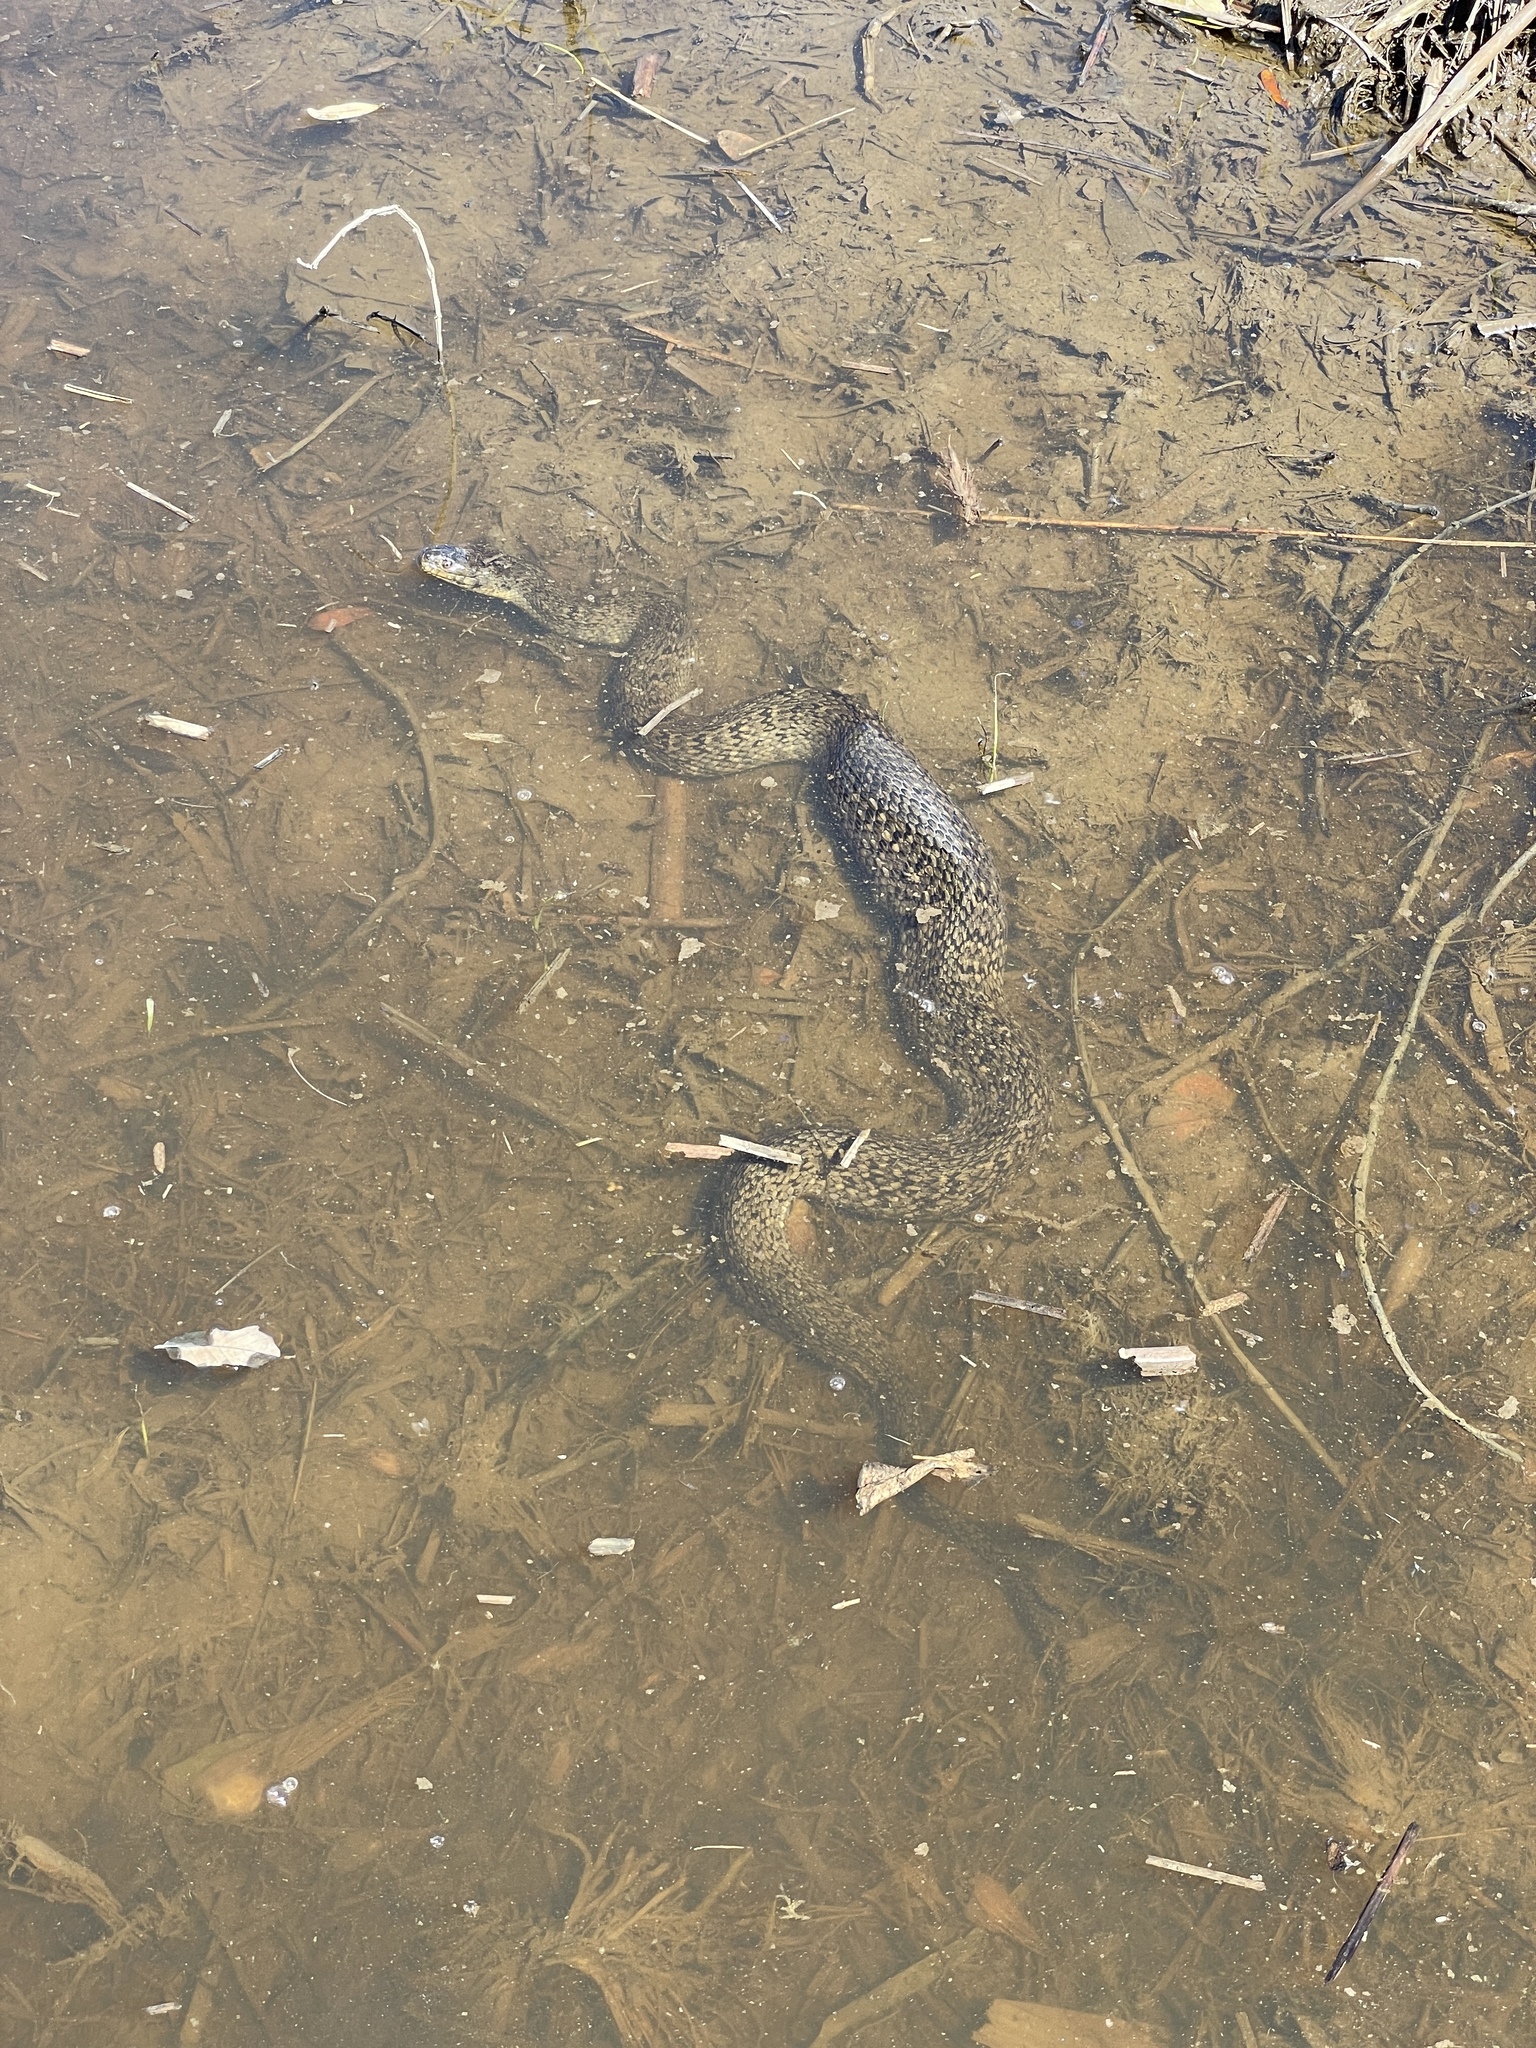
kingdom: Animalia
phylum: Chordata
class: Squamata
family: Colubridae
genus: Nerodia
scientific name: Nerodia cyclopion
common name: Mississippi green water snake
